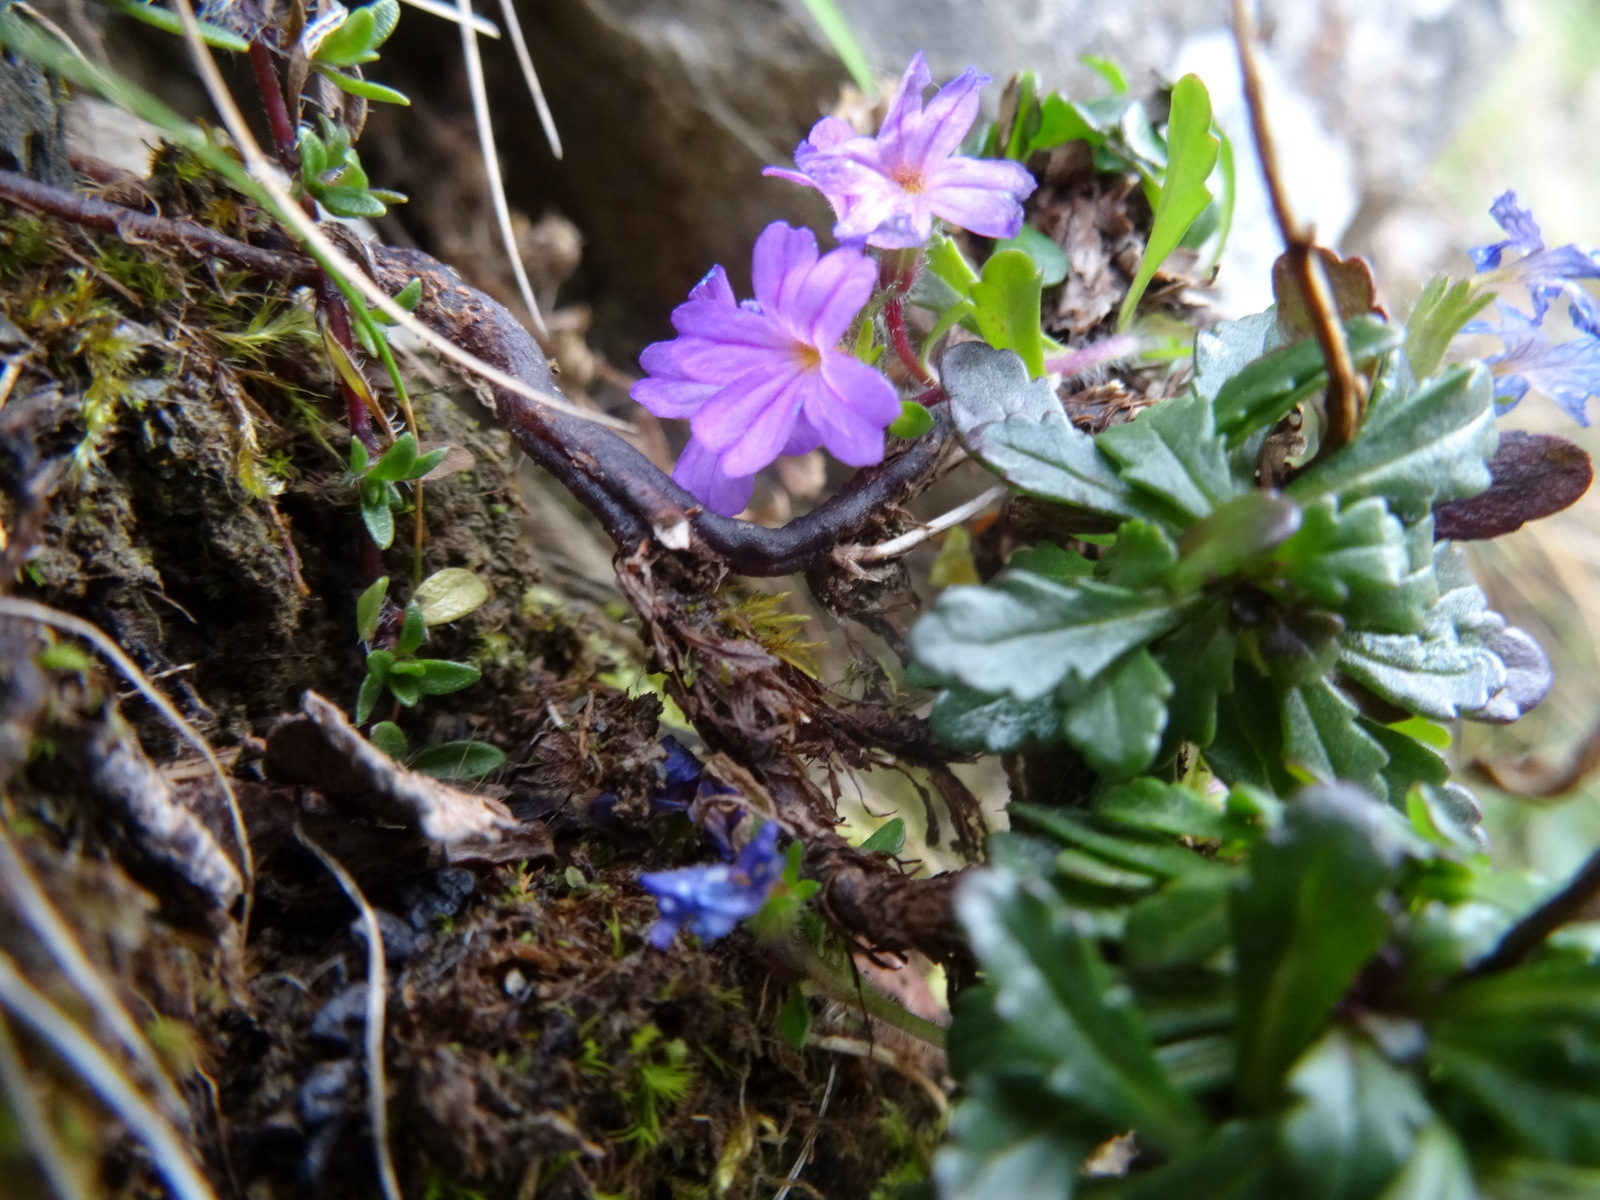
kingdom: Plantae
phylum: Tracheophyta
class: Magnoliopsida
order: Lamiales
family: Plantaginaceae
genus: Erinus
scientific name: Erinus alpinus
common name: Fairy foxglove
